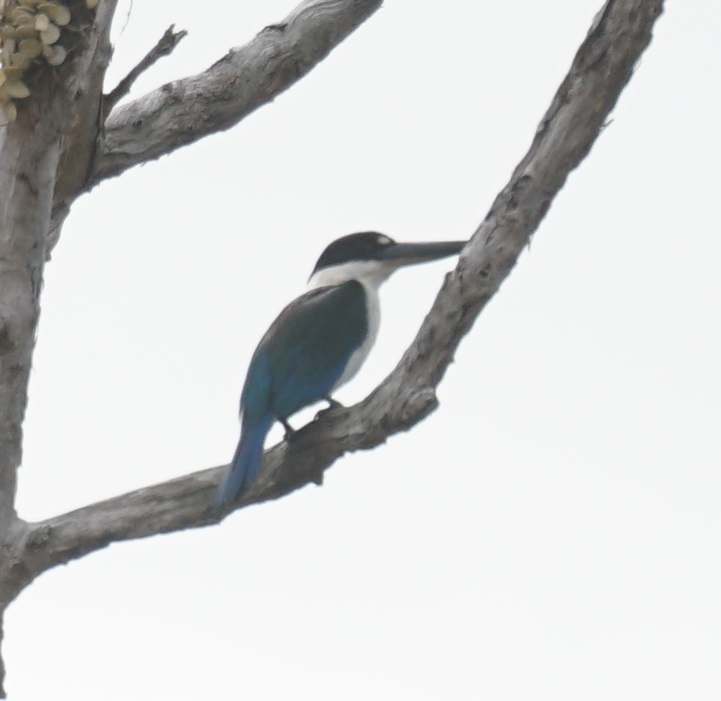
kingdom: Animalia
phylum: Chordata
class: Aves
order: Coraciiformes
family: Alcedinidae
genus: Todiramphus
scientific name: Todiramphus sordidus
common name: Torresian kingfisher
